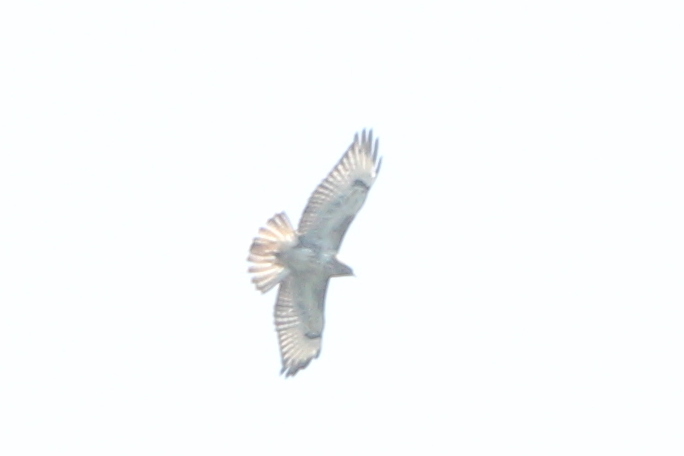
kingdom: Animalia
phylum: Chordata
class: Aves
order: Accipitriformes
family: Accipitridae
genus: Buteo
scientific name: Buteo buteo
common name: Common buzzard
